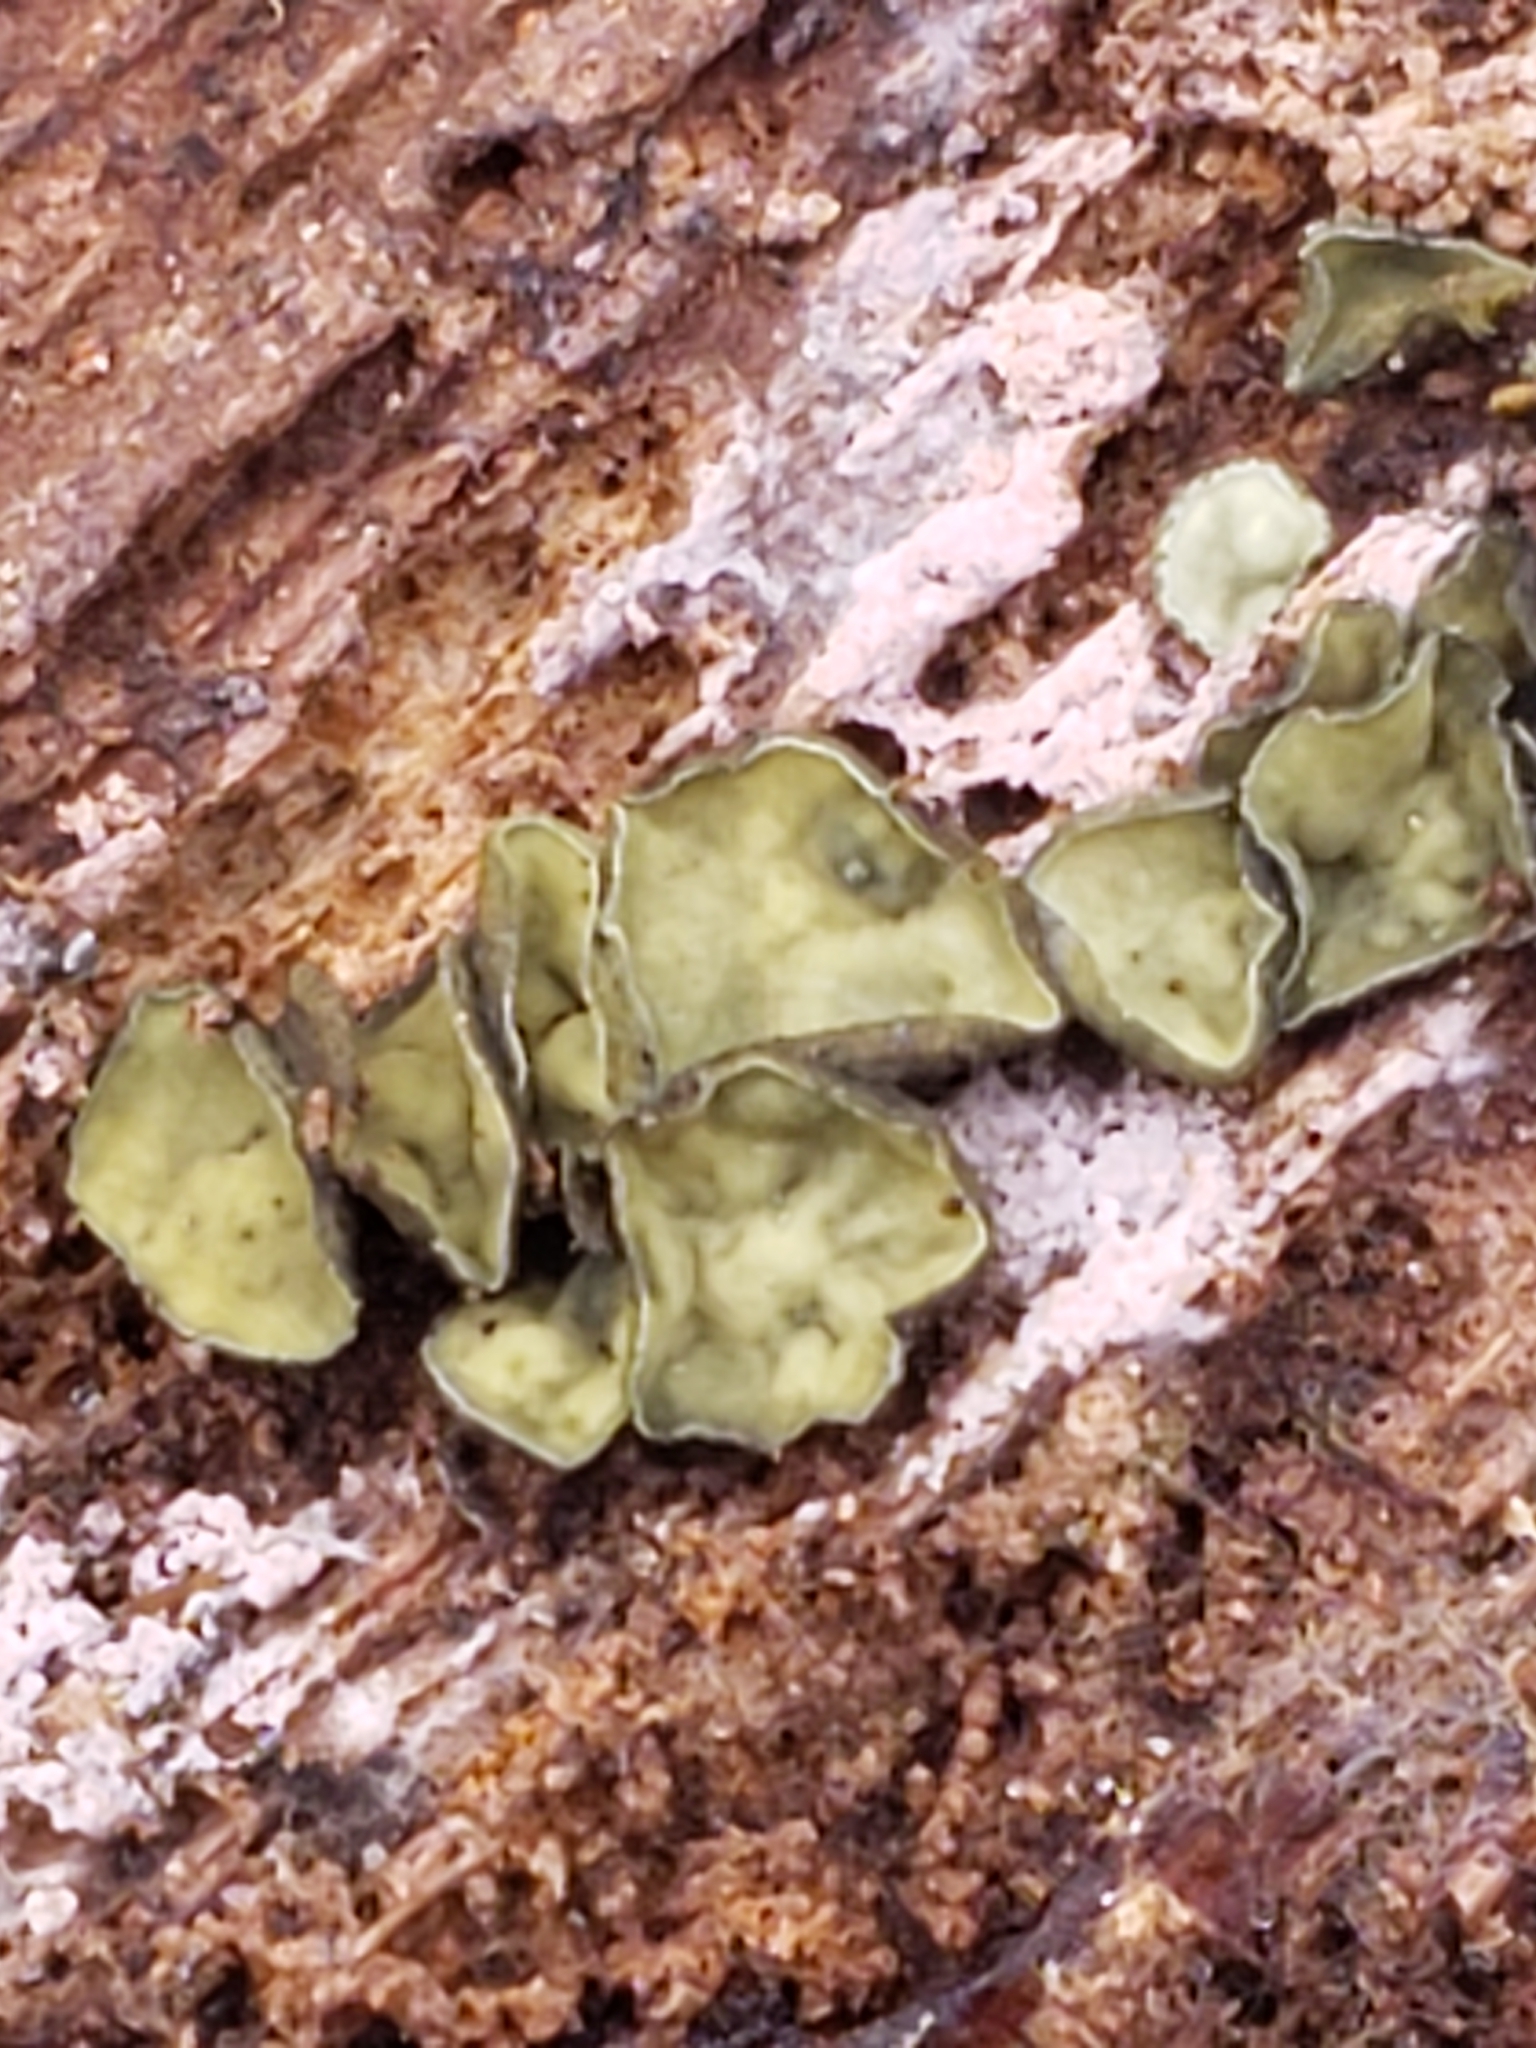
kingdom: Fungi
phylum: Ascomycota
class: Leotiomycetes
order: Helotiales
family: Chlorospleniaceae
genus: Chlorosplenium
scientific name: Chlorosplenium chlora
